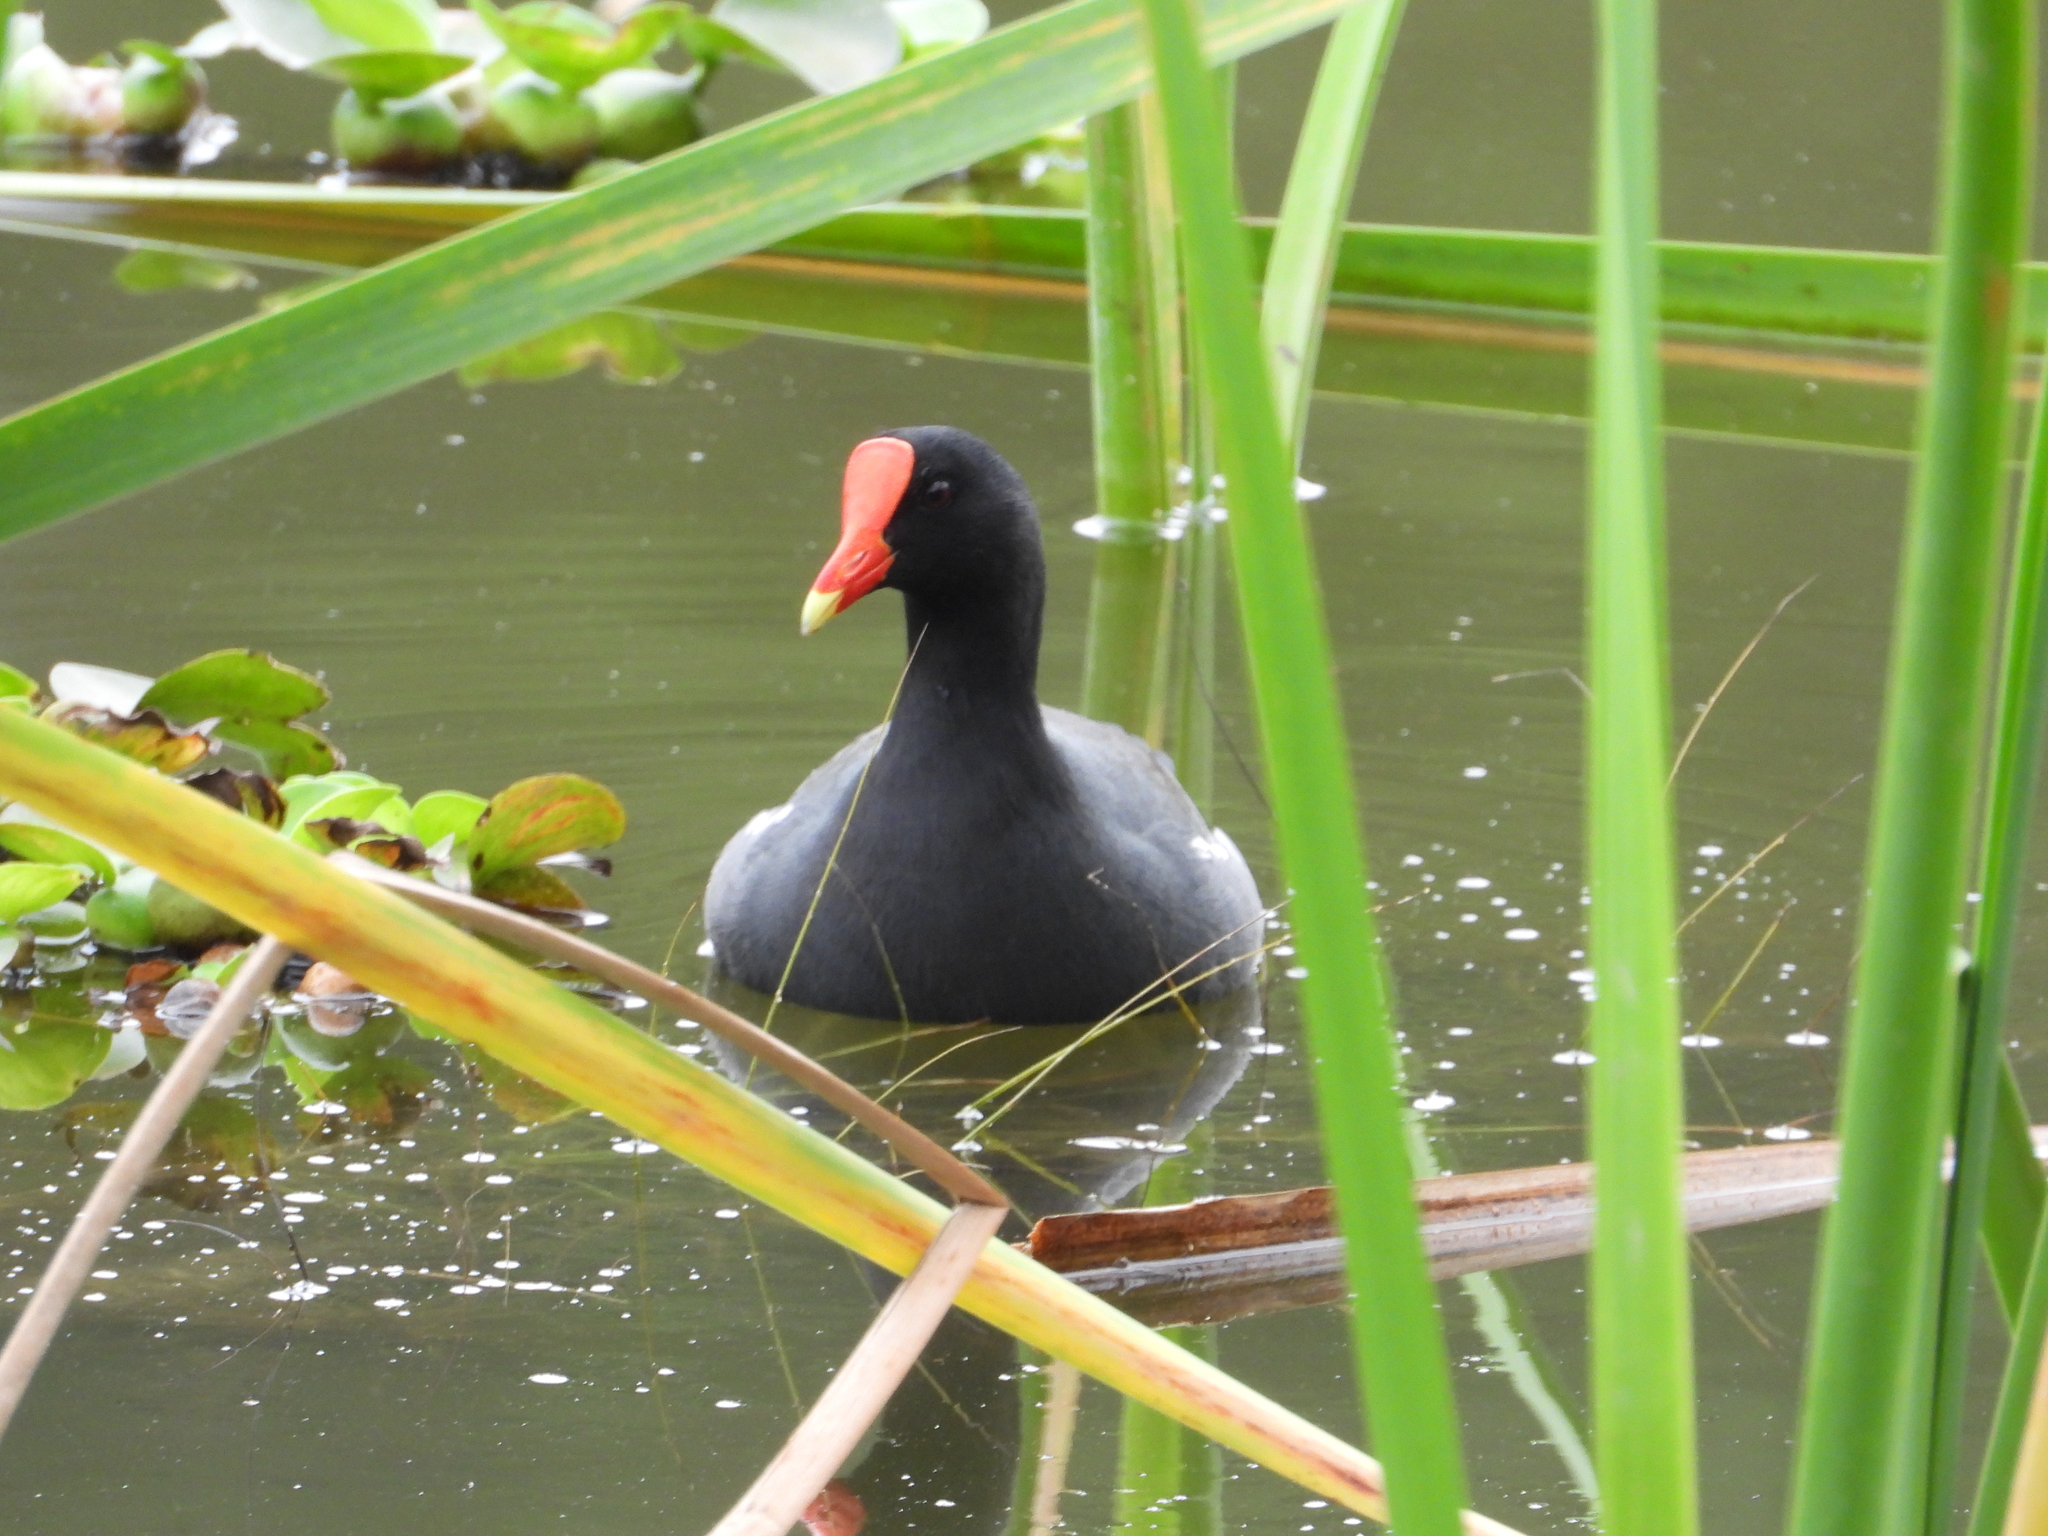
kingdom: Animalia
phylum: Chordata
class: Aves
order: Gruiformes
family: Rallidae
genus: Gallinula
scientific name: Gallinula chloropus
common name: Common moorhen
